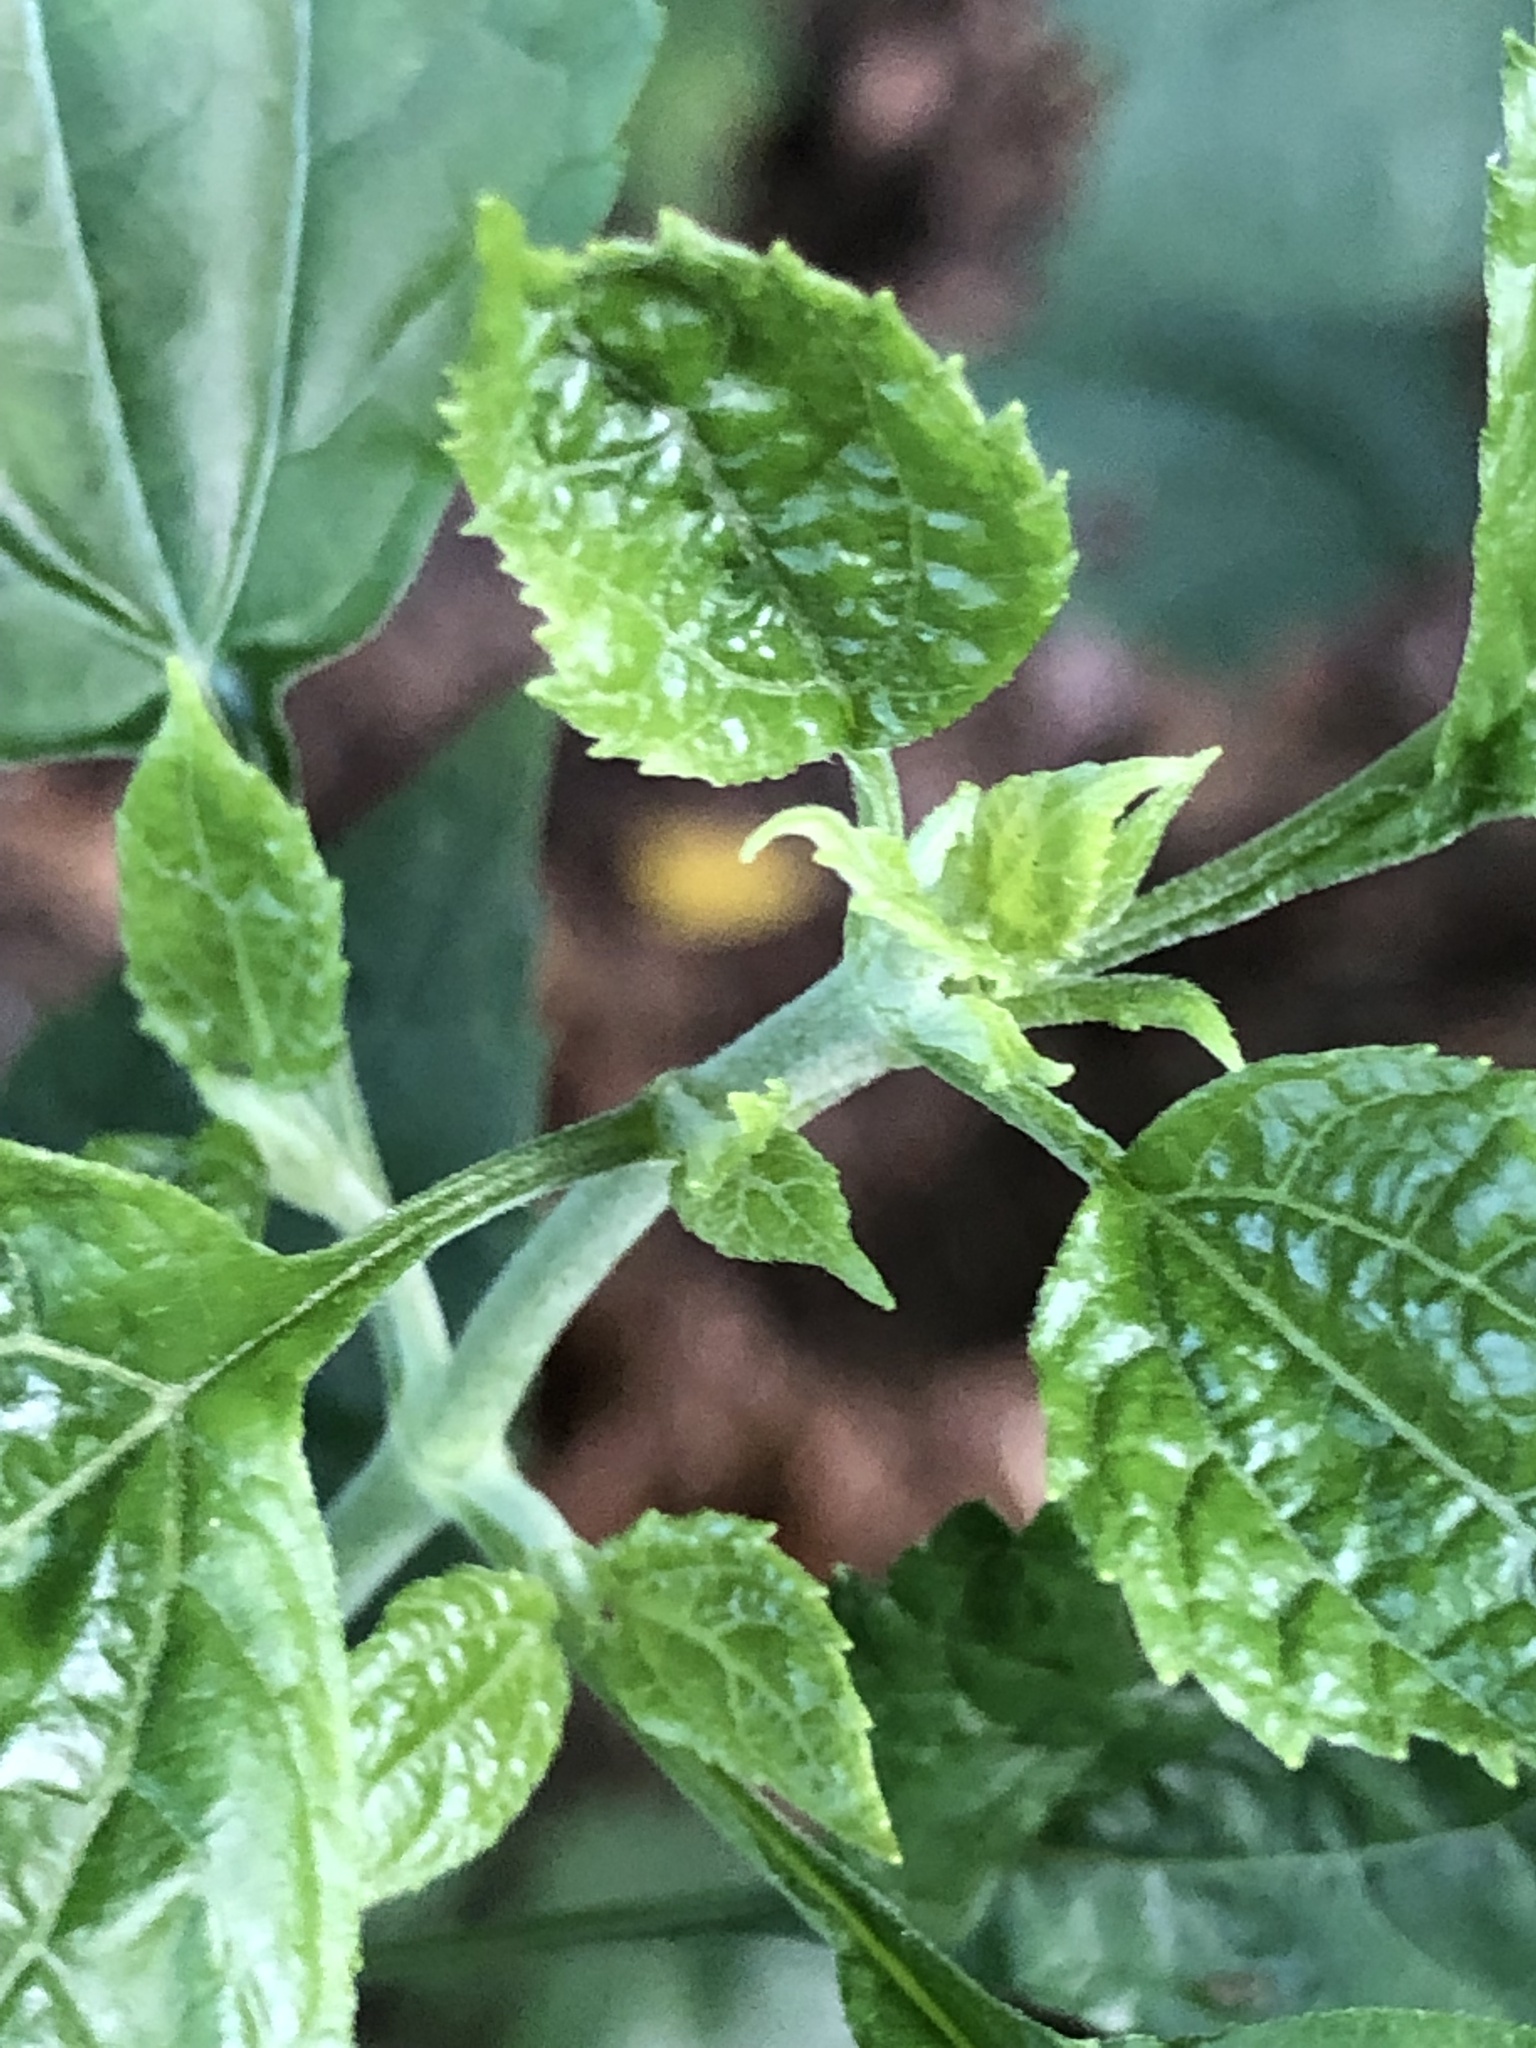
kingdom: Plantae
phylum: Tracheophyta
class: Magnoliopsida
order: Asterales
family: Asteraceae
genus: Ageratina
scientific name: Ageratina altissima
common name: White snakeroot
